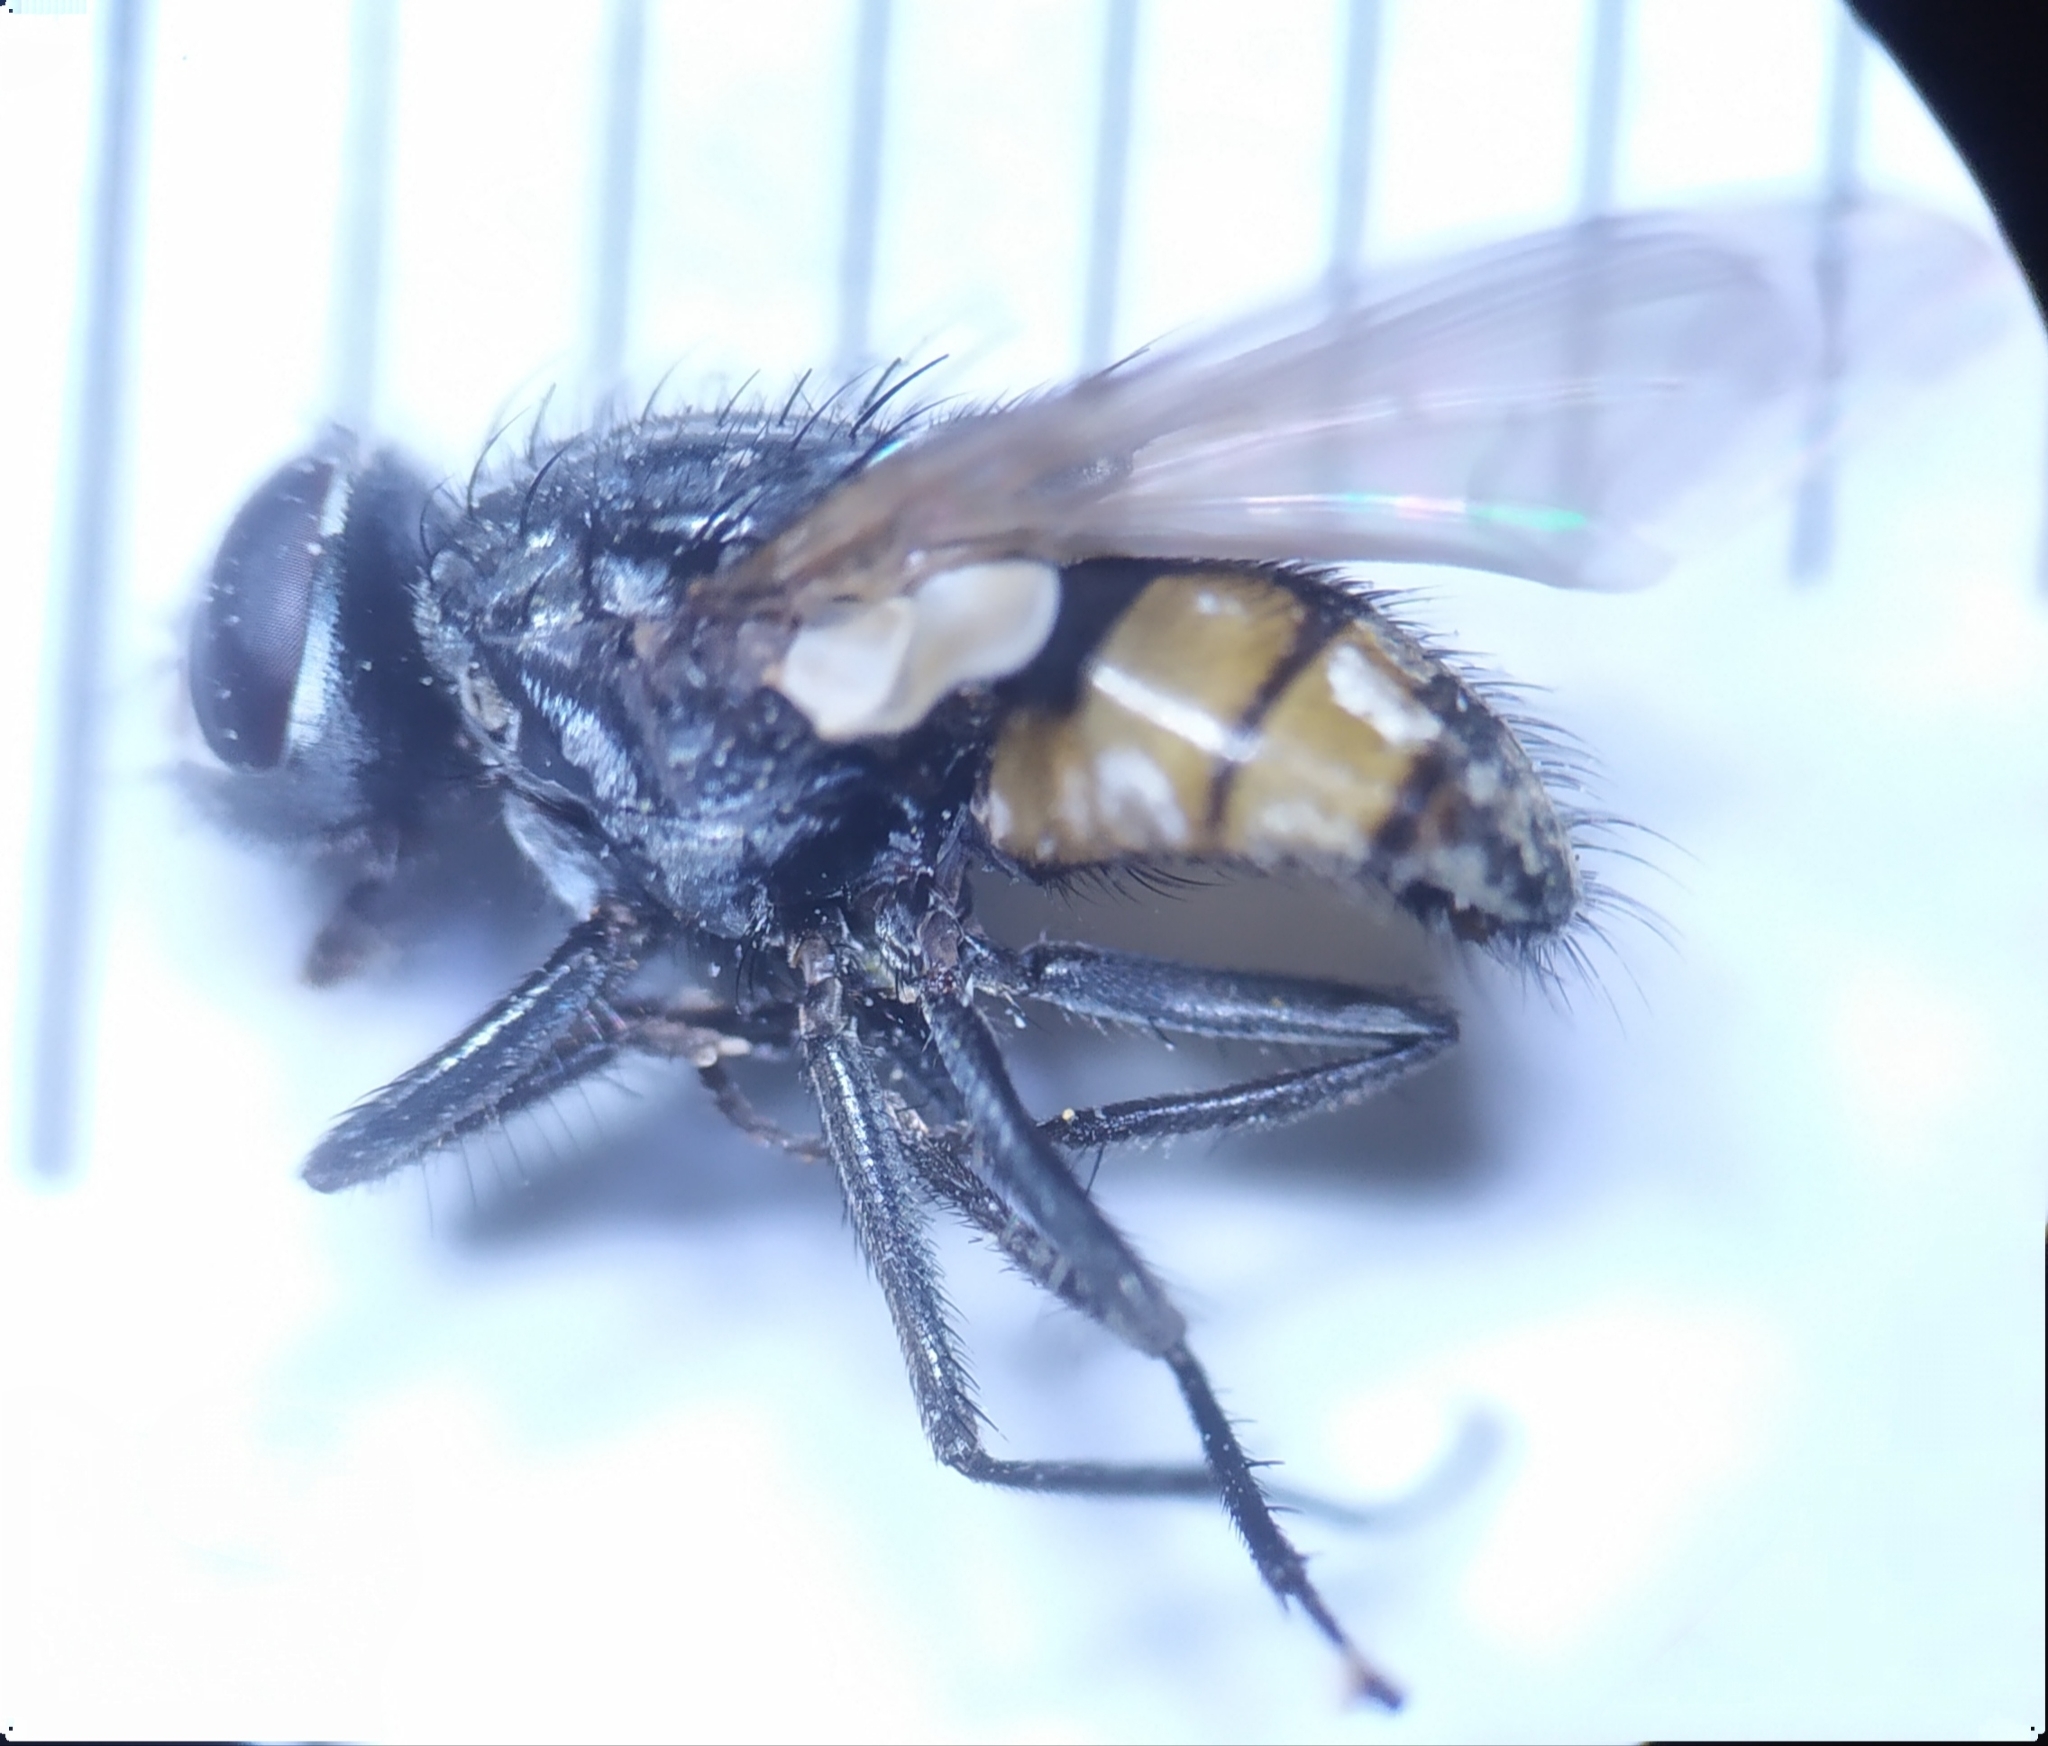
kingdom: Animalia
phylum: Arthropoda
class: Insecta
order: Diptera
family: Muscidae
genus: Musca
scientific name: Musca autumnalis
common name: Face fly
